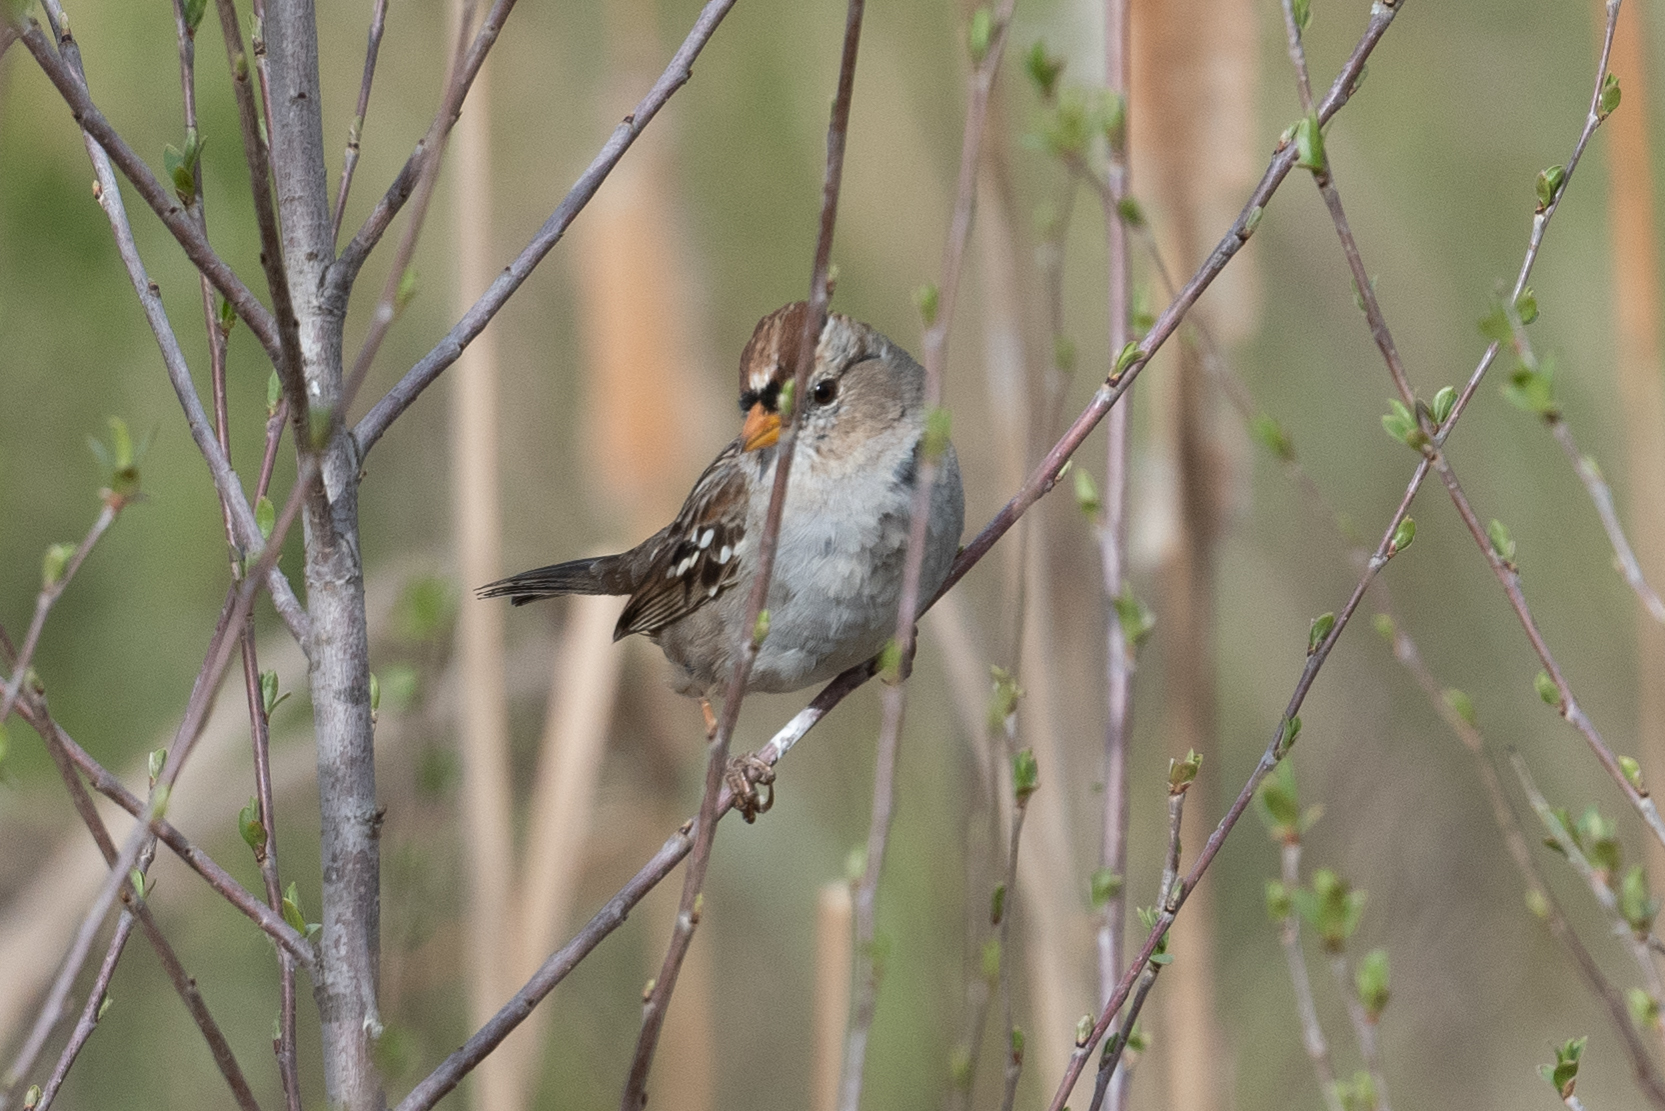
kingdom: Animalia
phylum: Chordata
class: Aves
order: Passeriformes
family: Passerellidae
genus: Zonotrichia
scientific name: Zonotrichia leucophrys
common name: White-crowned sparrow
